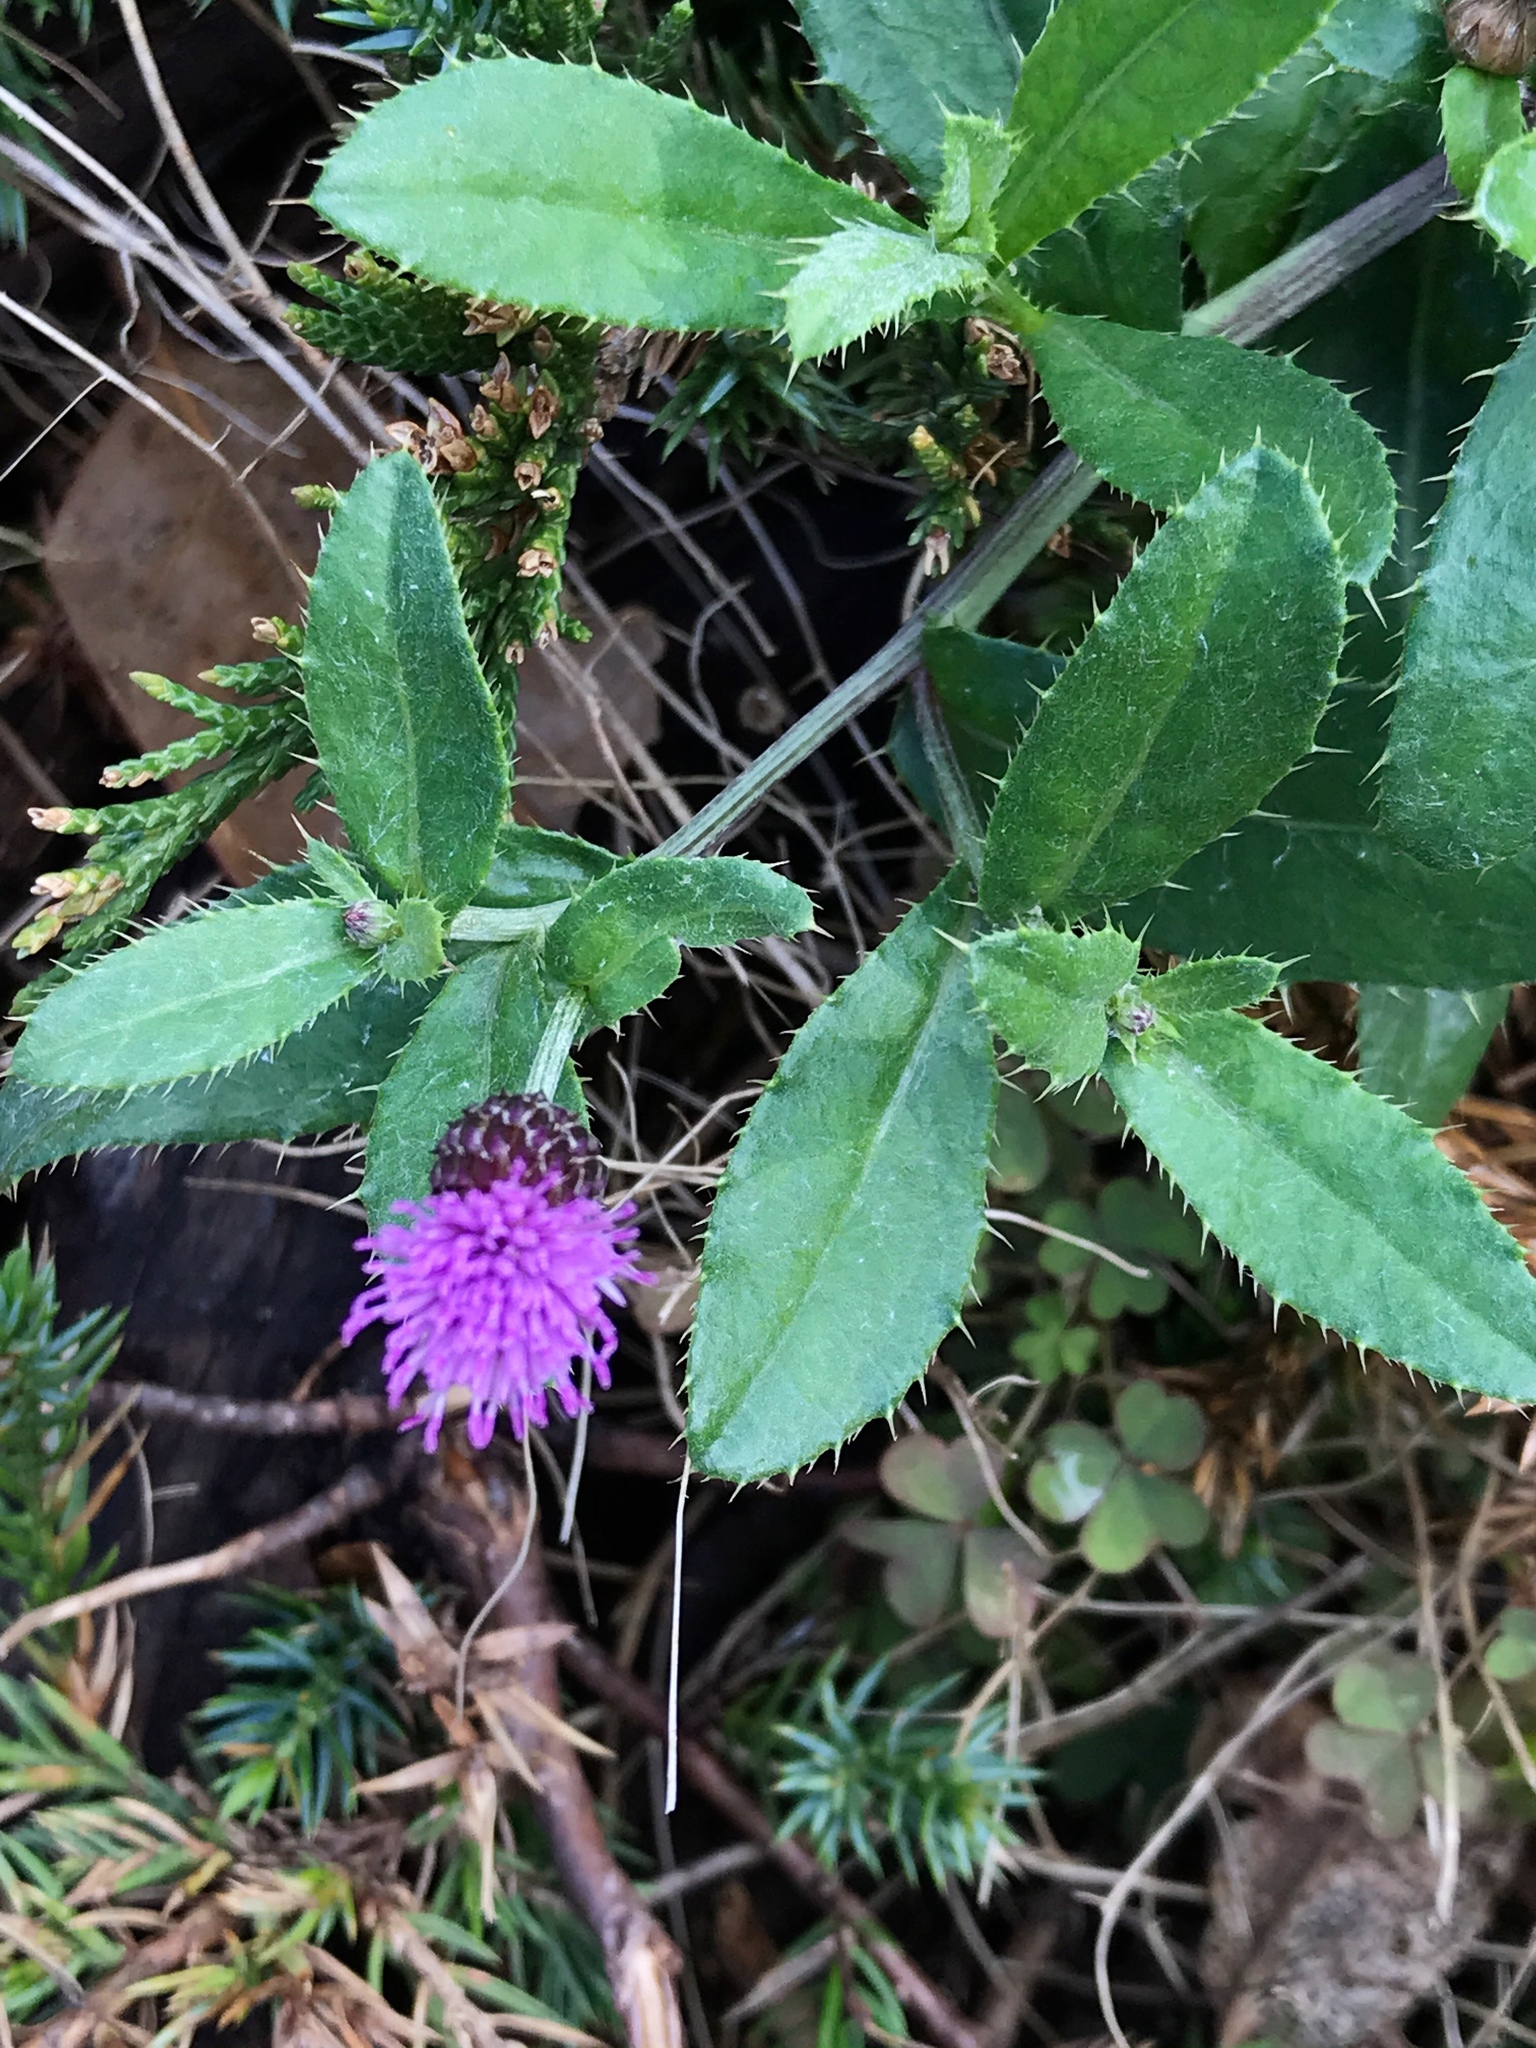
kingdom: Plantae
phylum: Tracheophyta
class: Magnoliopsida
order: Asterales
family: Asteraceae
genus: Cirsium
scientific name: Cirsium arvense
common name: Creeping thistle
